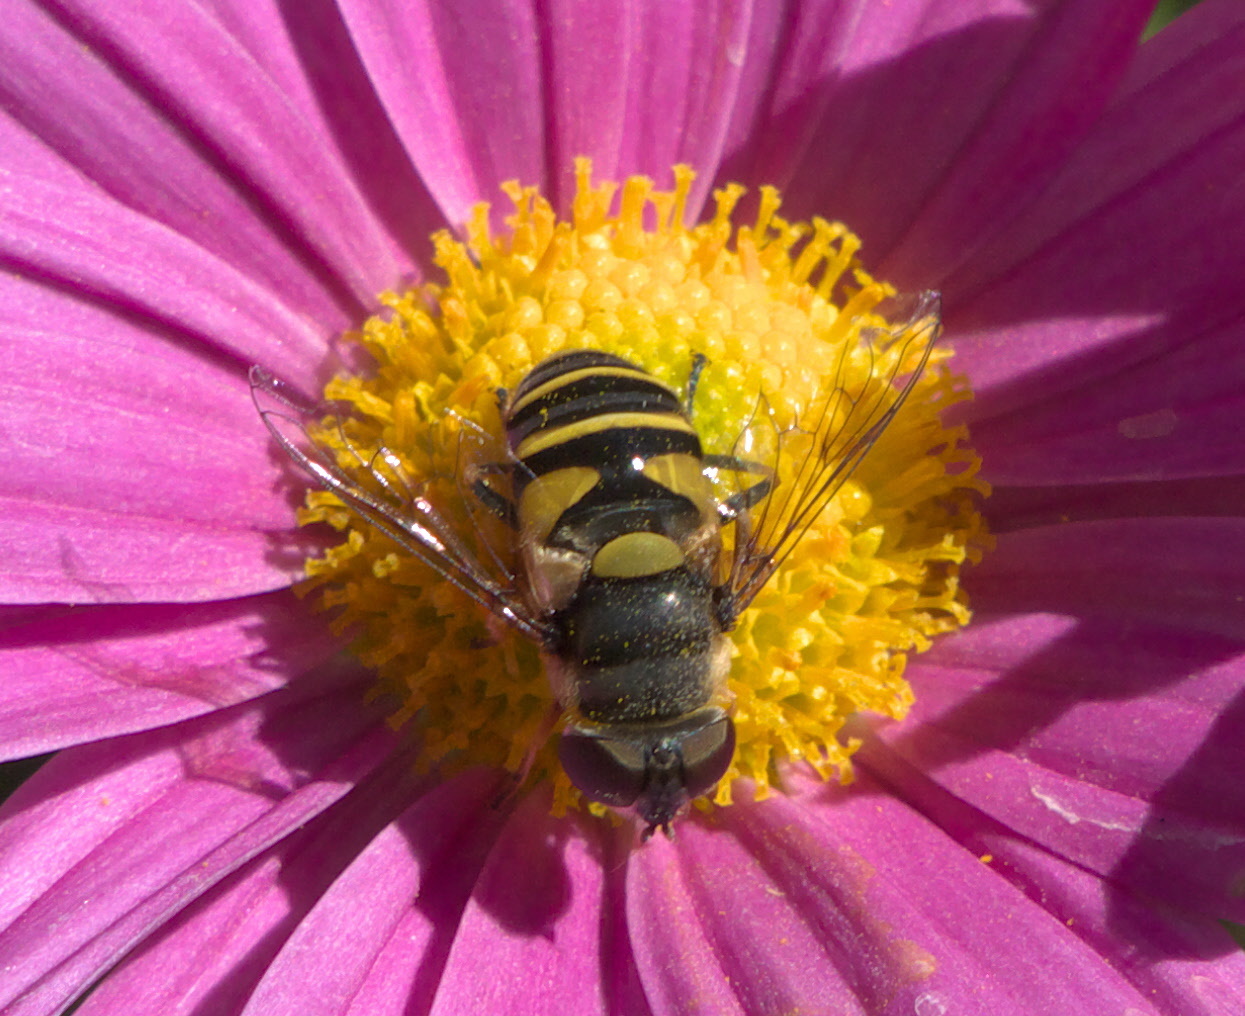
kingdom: Animalia
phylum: Arthropoda
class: Insecta
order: Diptera
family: Syrphidae
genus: Eristalis
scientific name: Eristalis transversa
